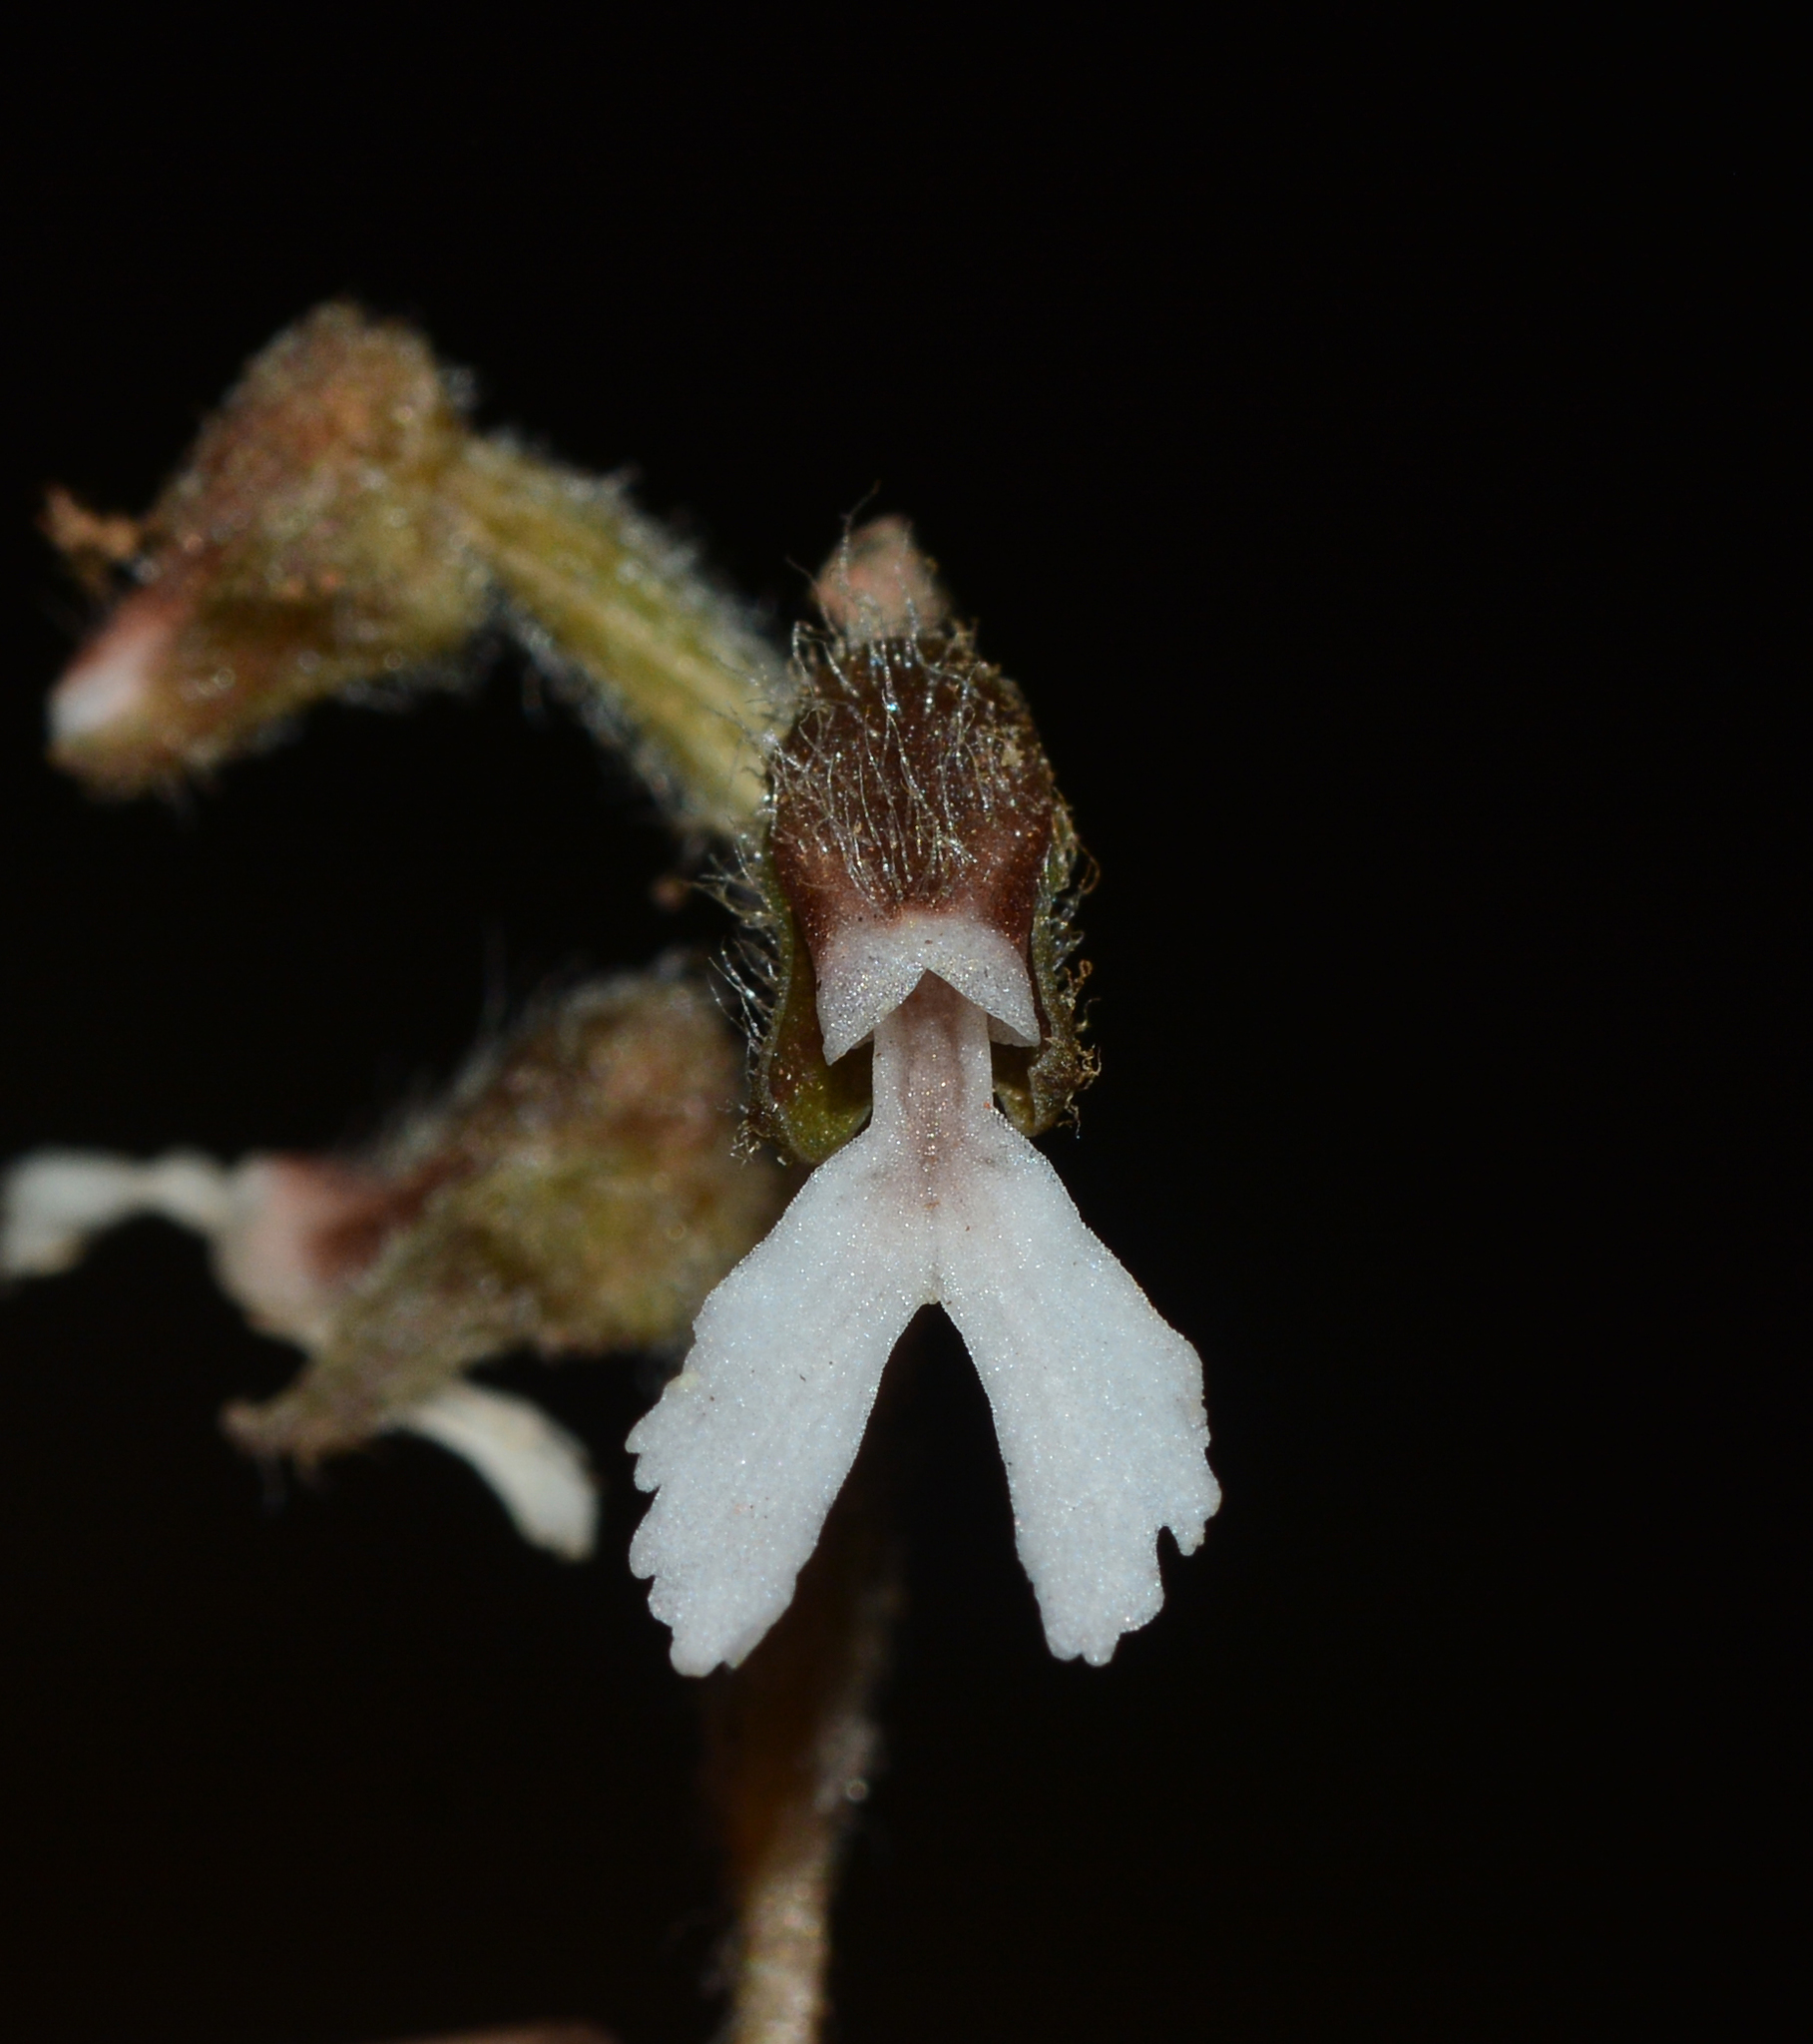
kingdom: Plantae
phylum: Tracheophyta
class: Liliopsida
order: Asparagales
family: Orchidaceae
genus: Zeuxine
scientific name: Zeuxine longilabris
